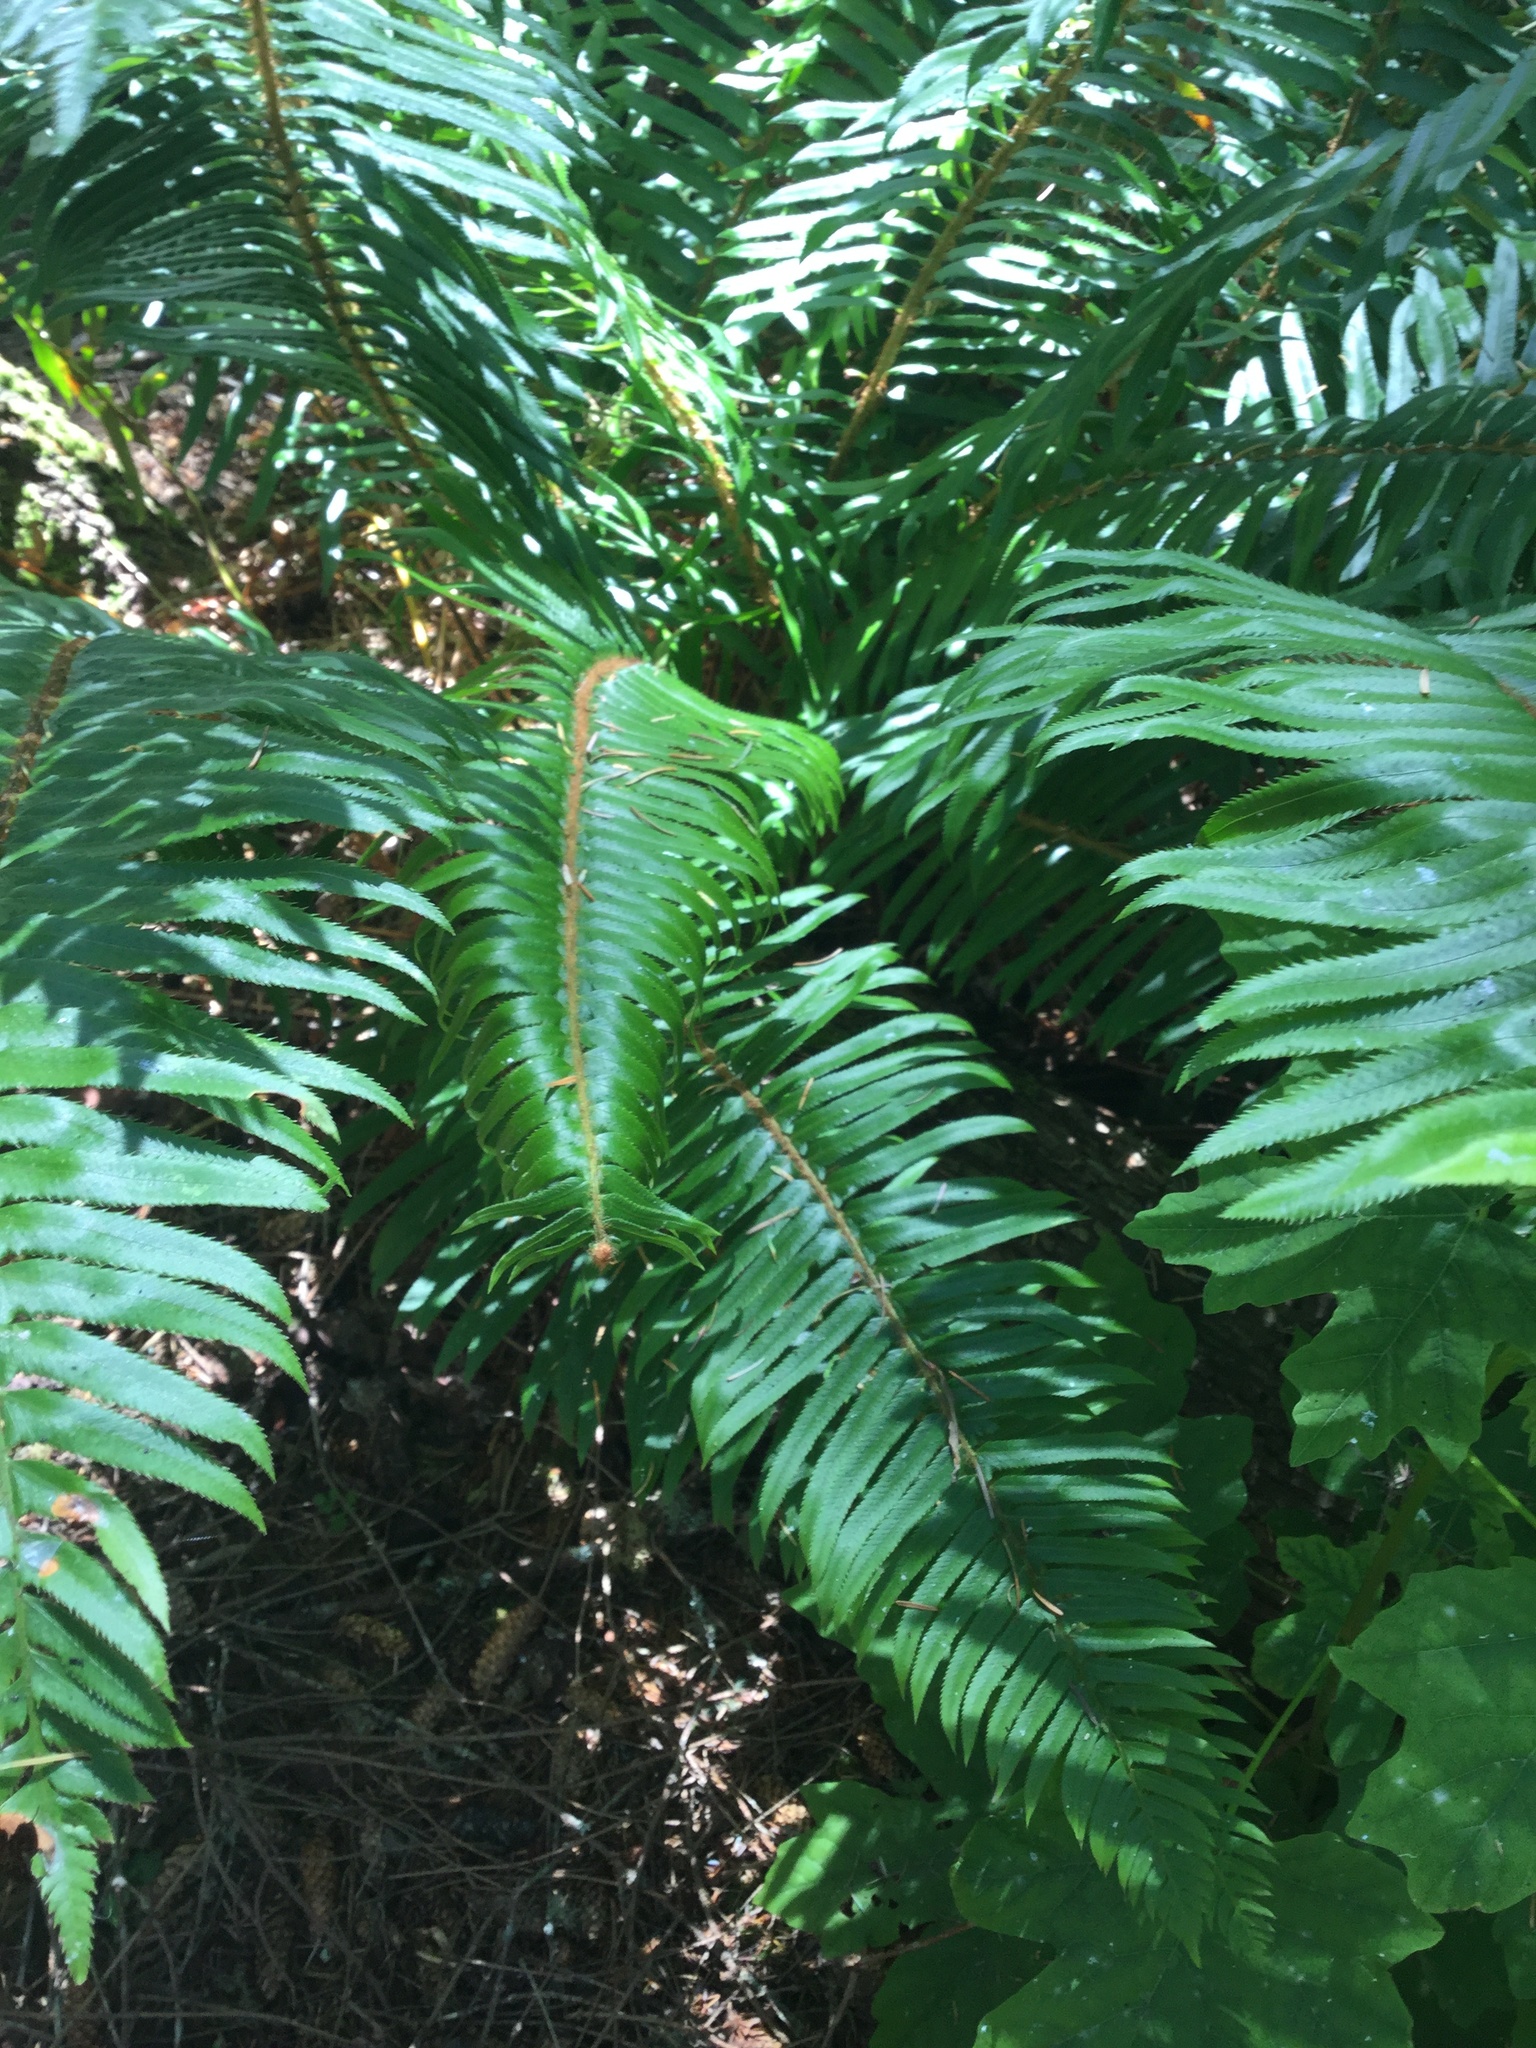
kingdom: Plantae
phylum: Tracheophyta
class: Polypodiopsida
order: Polypodiales
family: Dryopteridaceae
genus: Polystichum
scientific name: Polystichum munitum
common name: Western sword-fern
